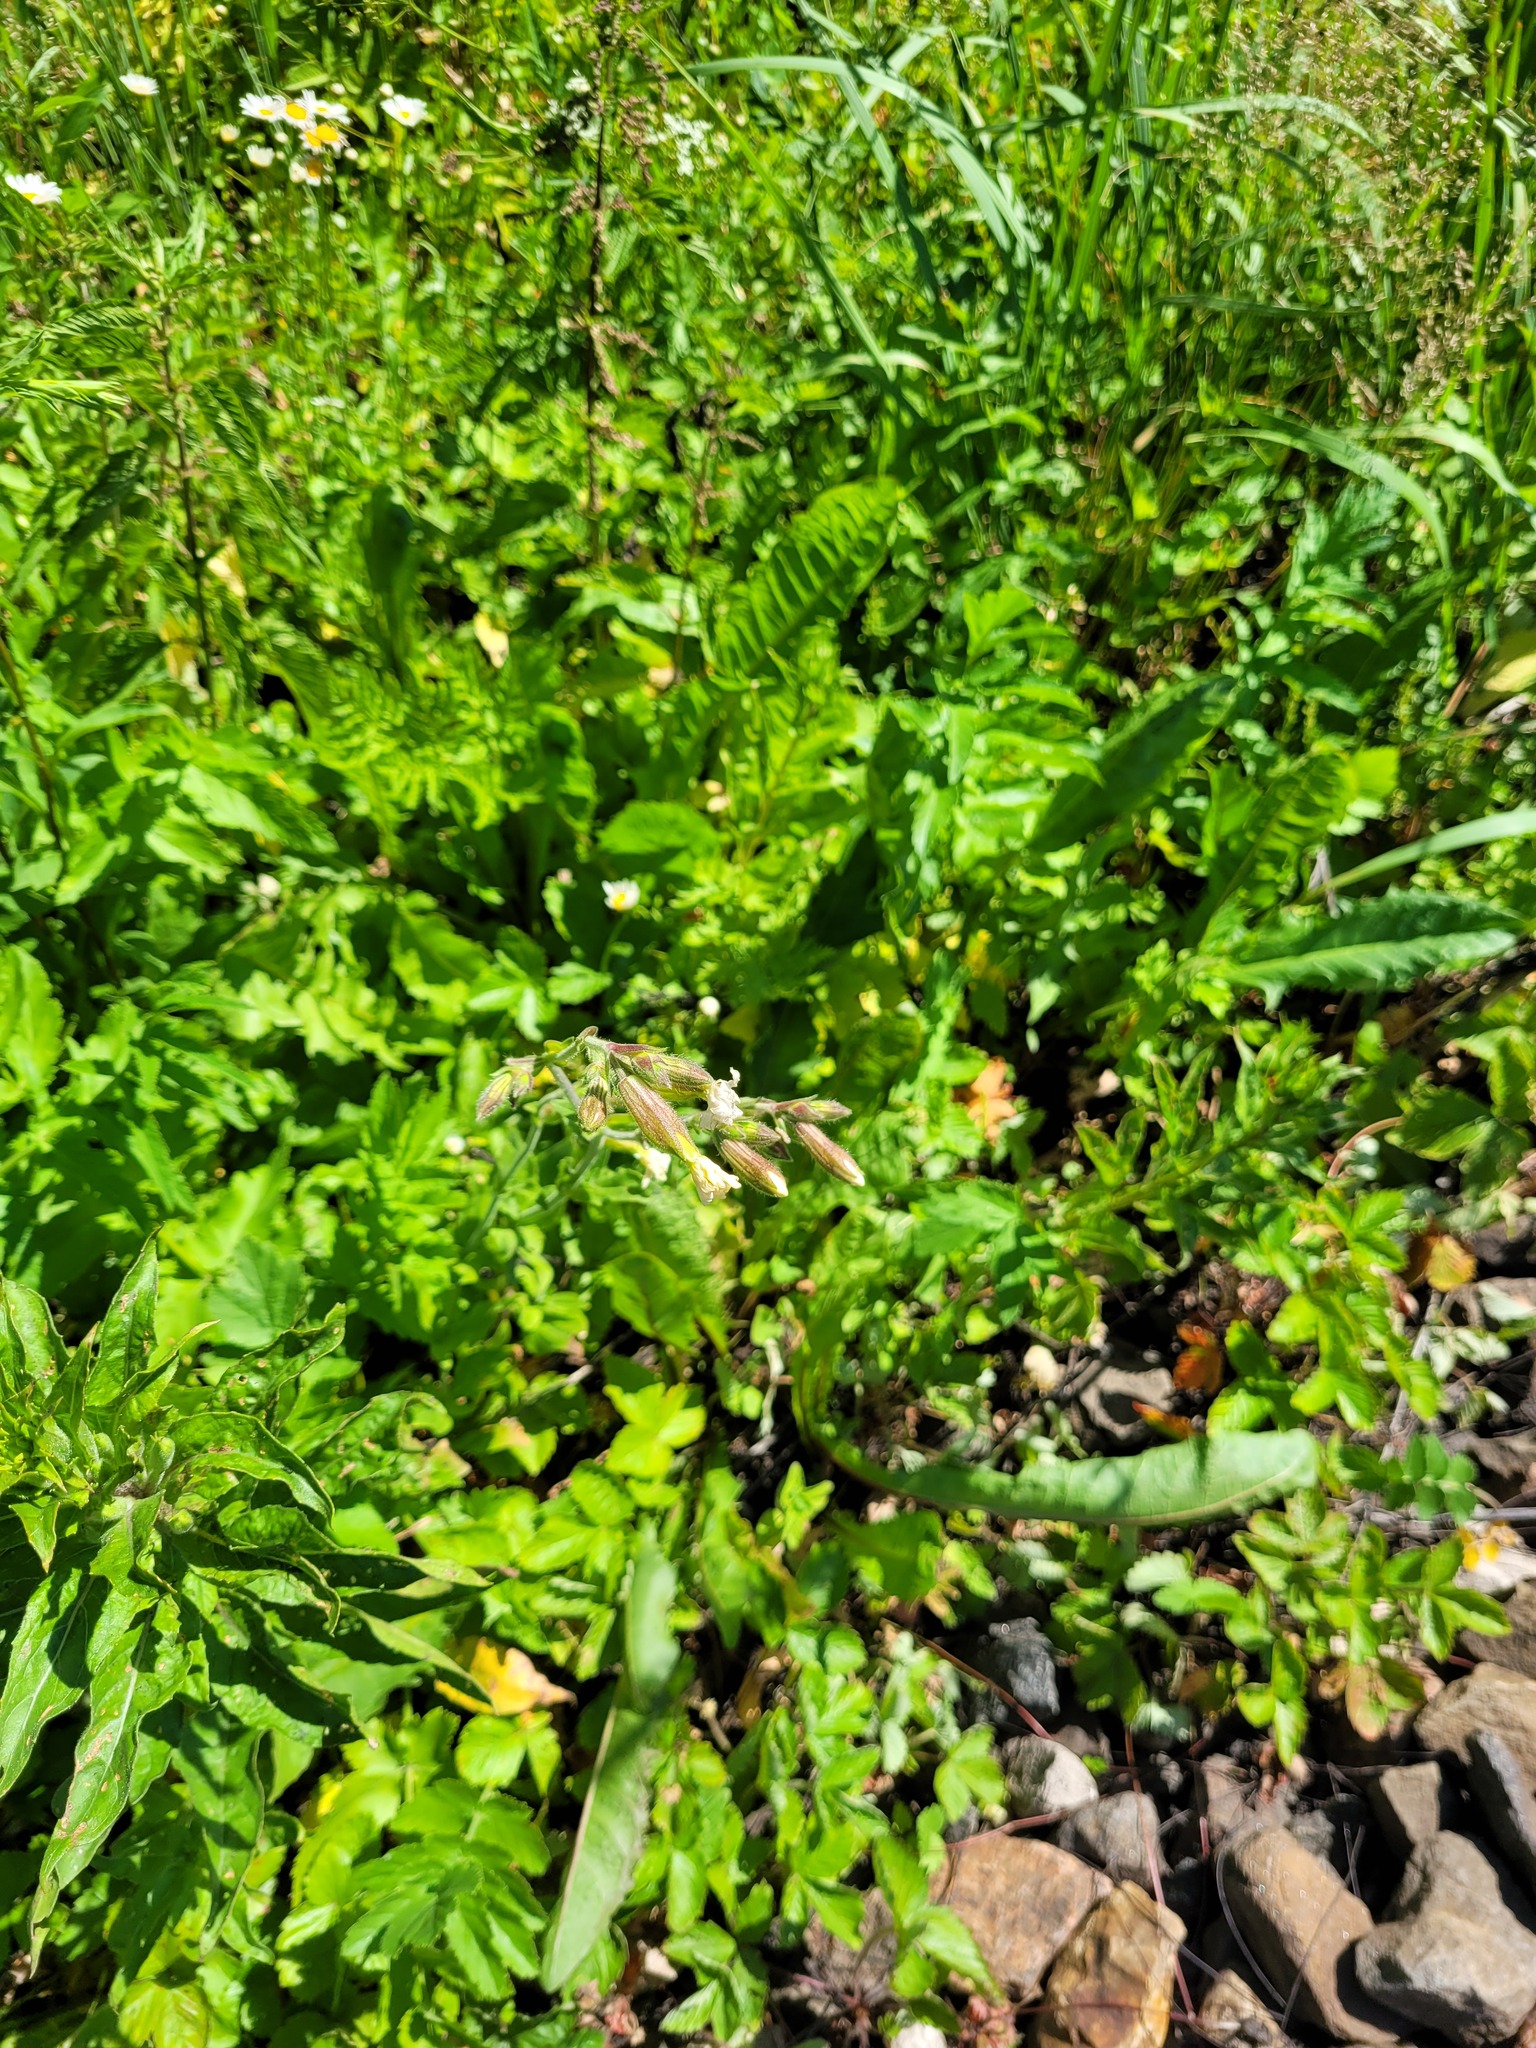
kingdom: Plantae
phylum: Tracheophyta
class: Magnoliopsida
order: Caryophyllales
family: Caryophyllaceae
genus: Silene
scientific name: Silene latifolia
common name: White campion
